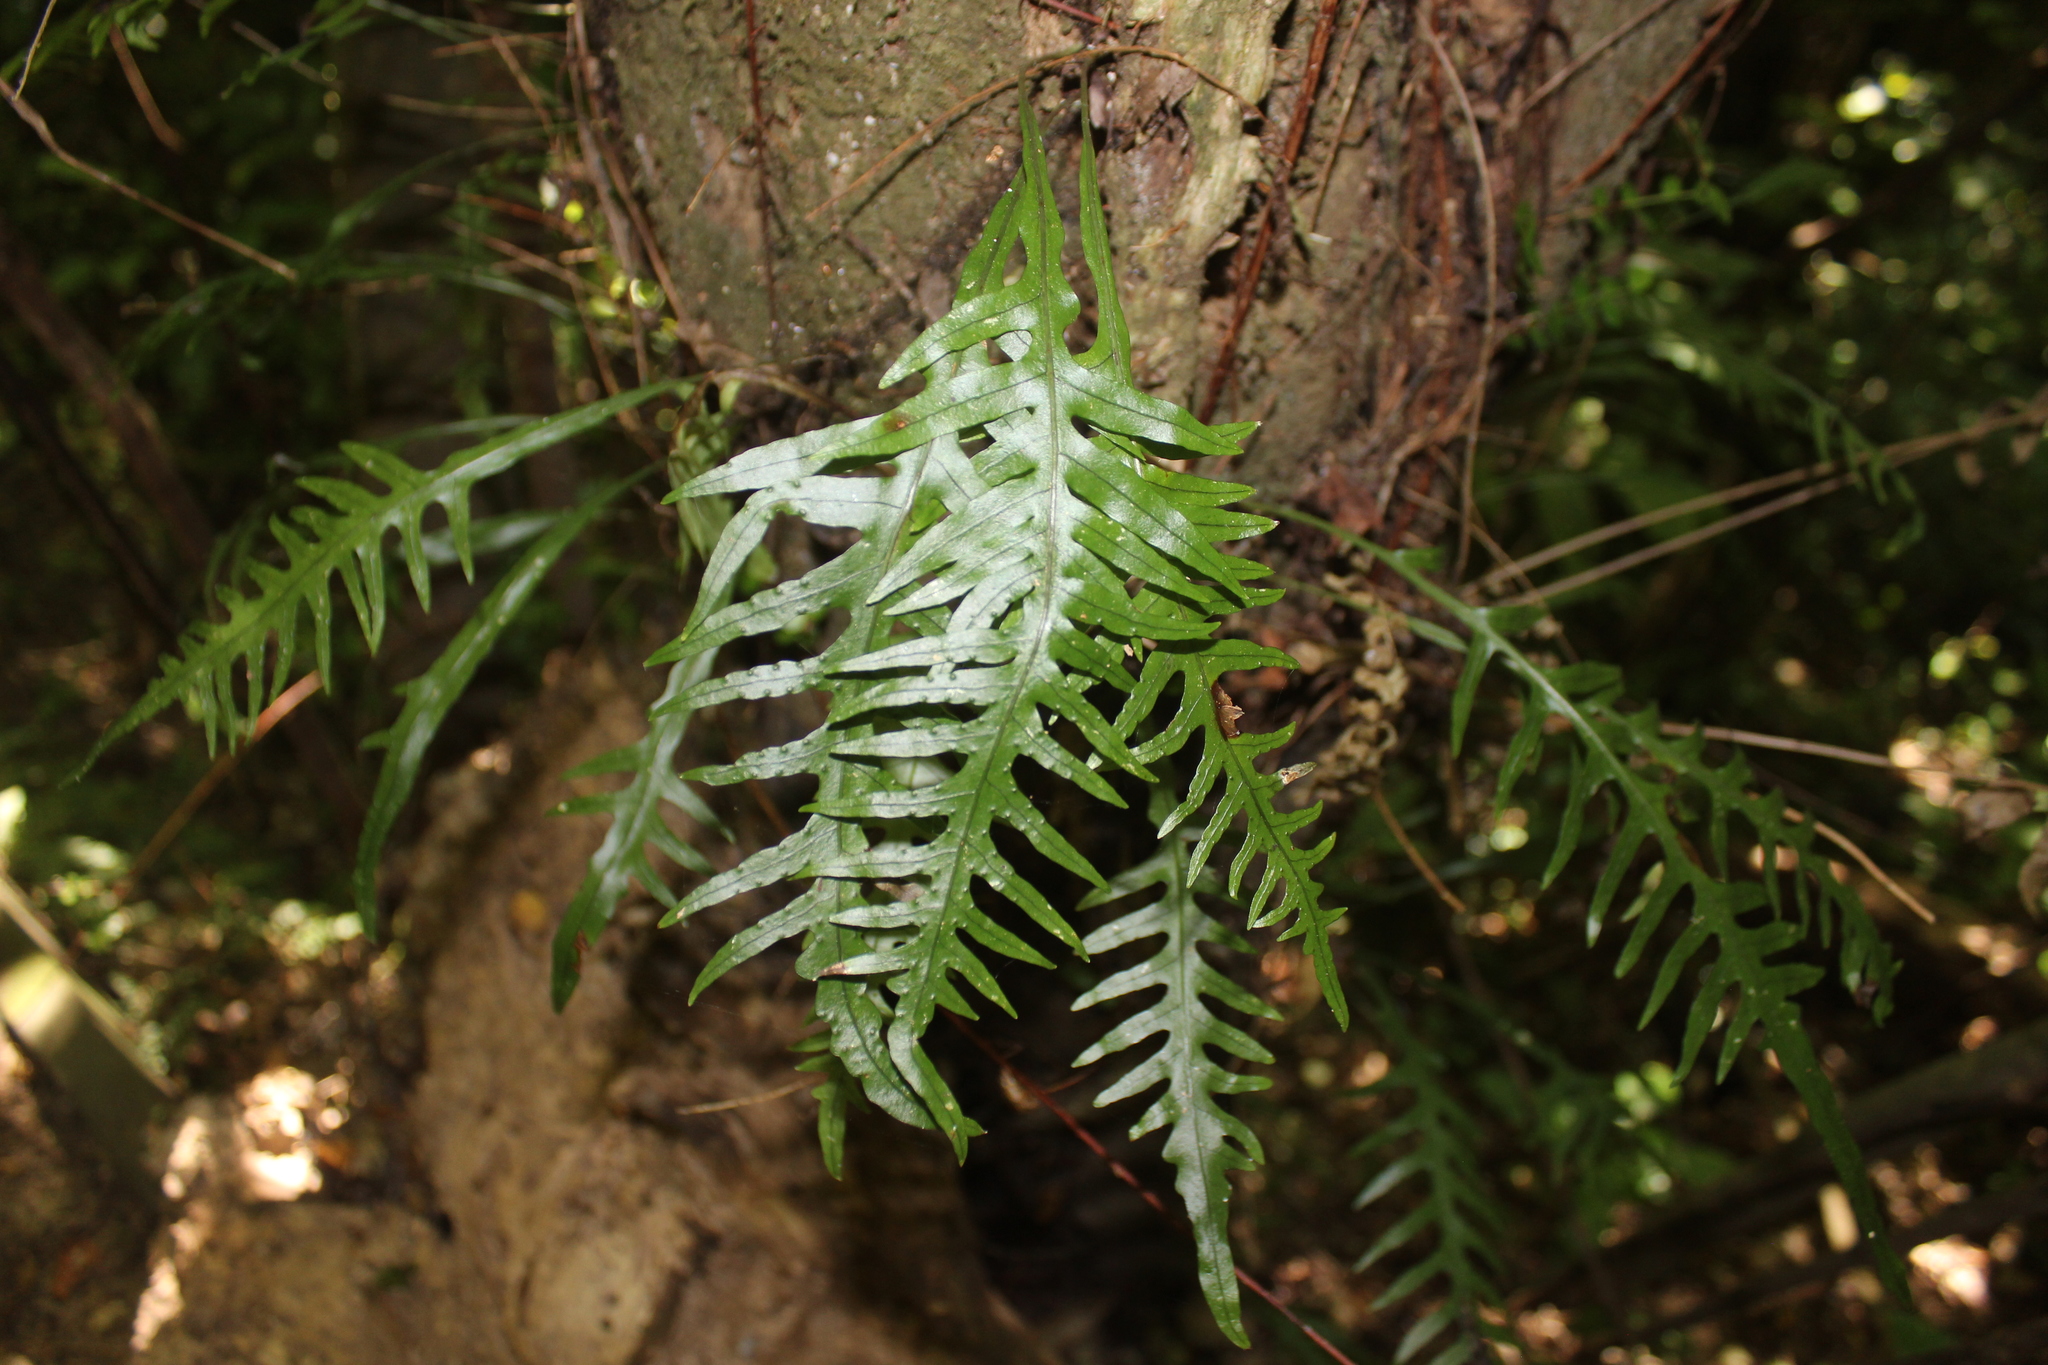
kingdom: Plantae
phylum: Tracheophyta
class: Polypodiopsida
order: Polypodiales
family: Polypodiaceae
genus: Lecanopteris
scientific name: Lecanopteris scandens
